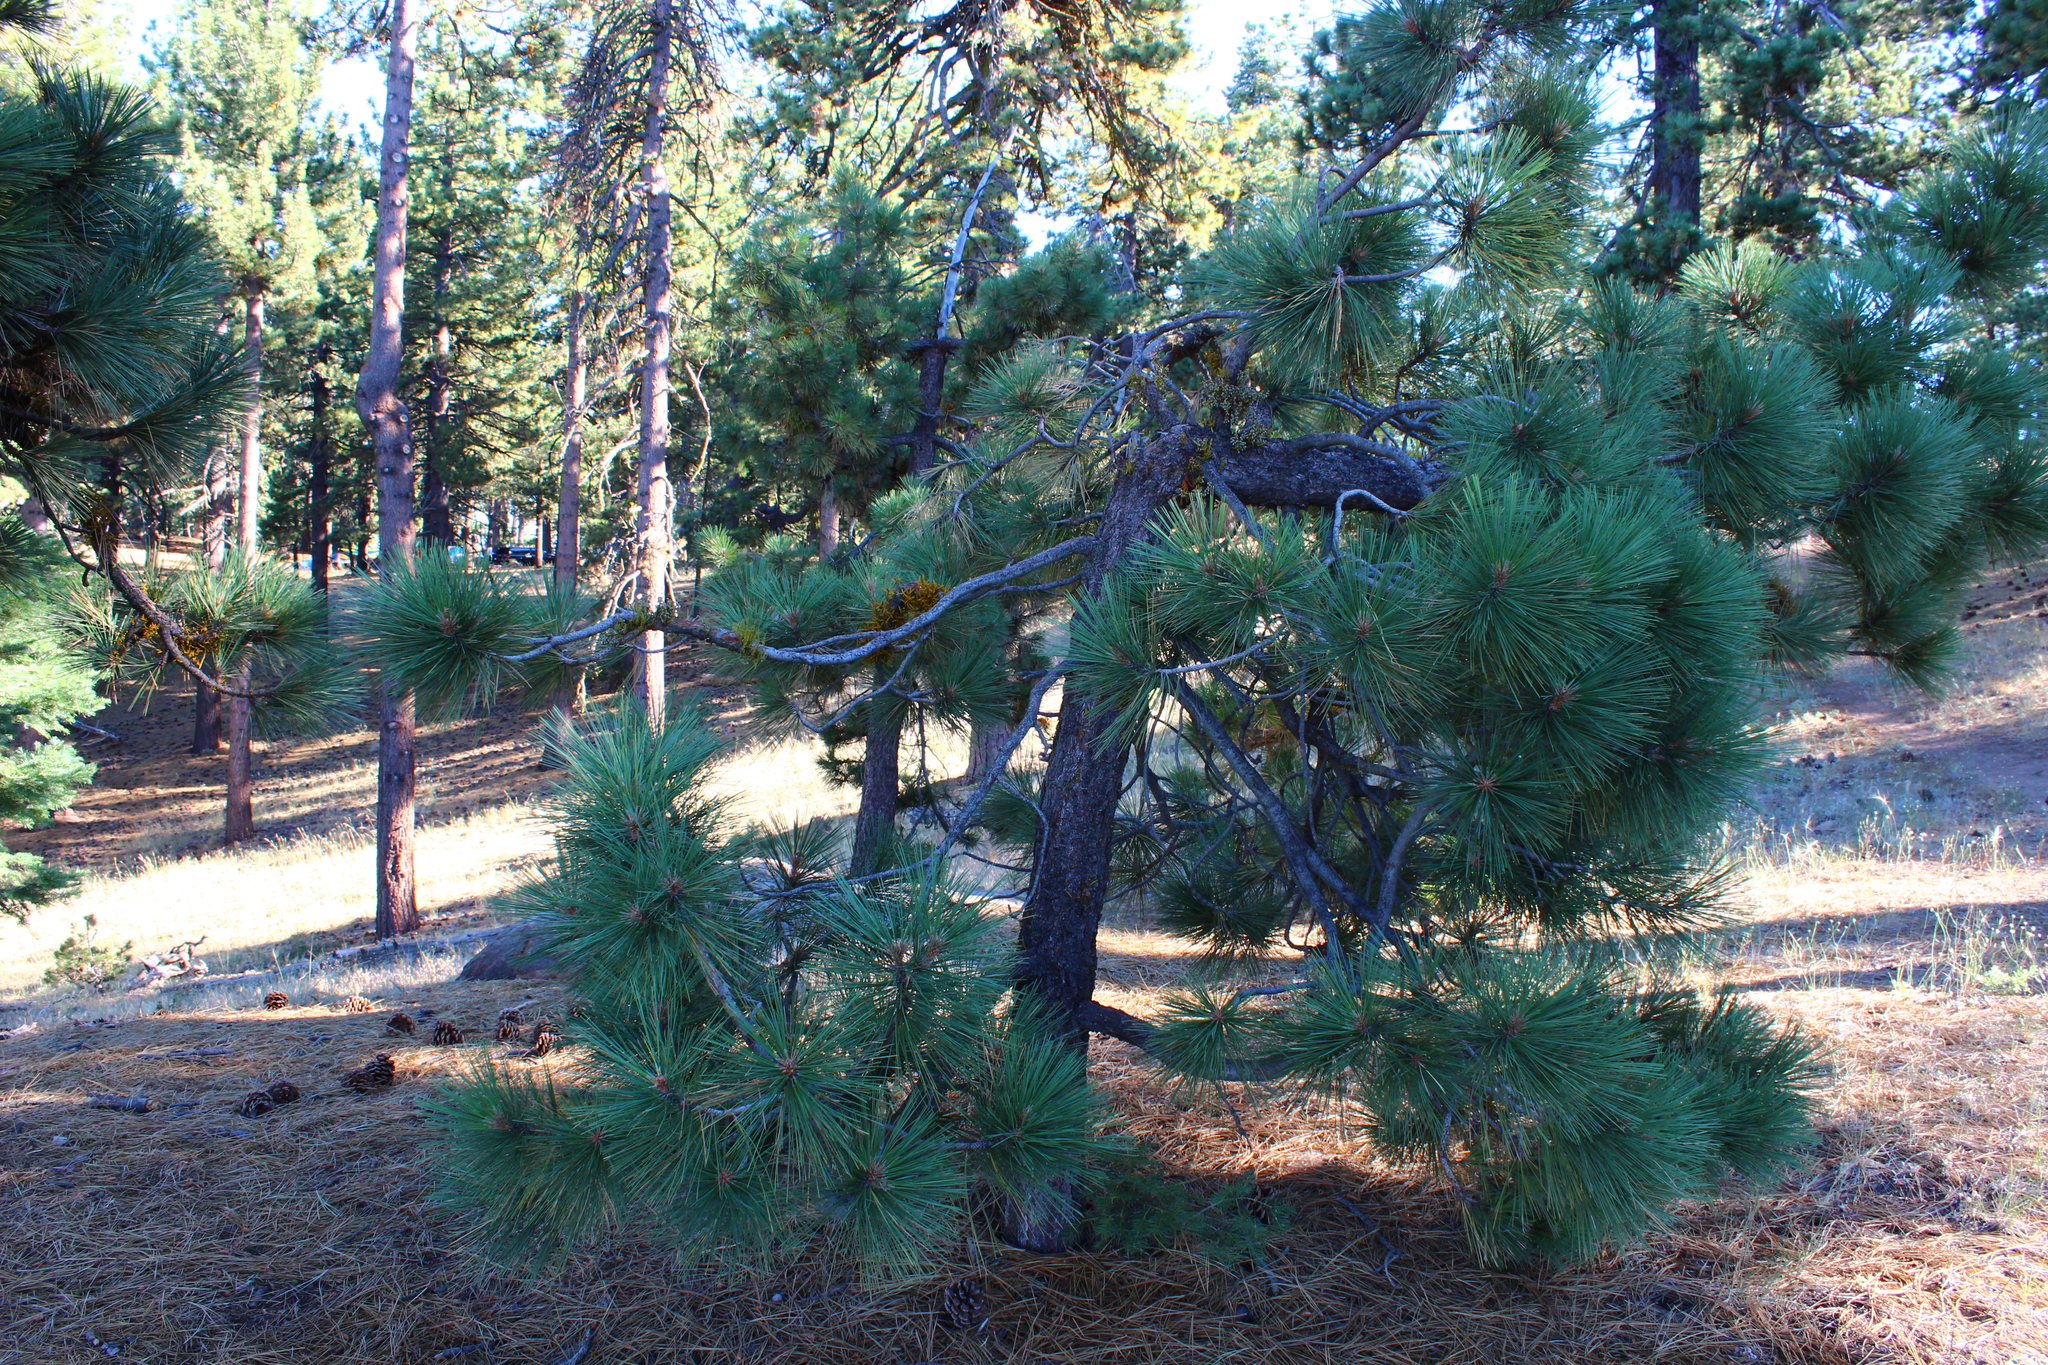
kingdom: Plantae
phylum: Tracheophyta
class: Pinopsida
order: Pinales
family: Pinaceae
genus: Pinus
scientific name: Pinus jeffreyi
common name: Jeffrey pine
